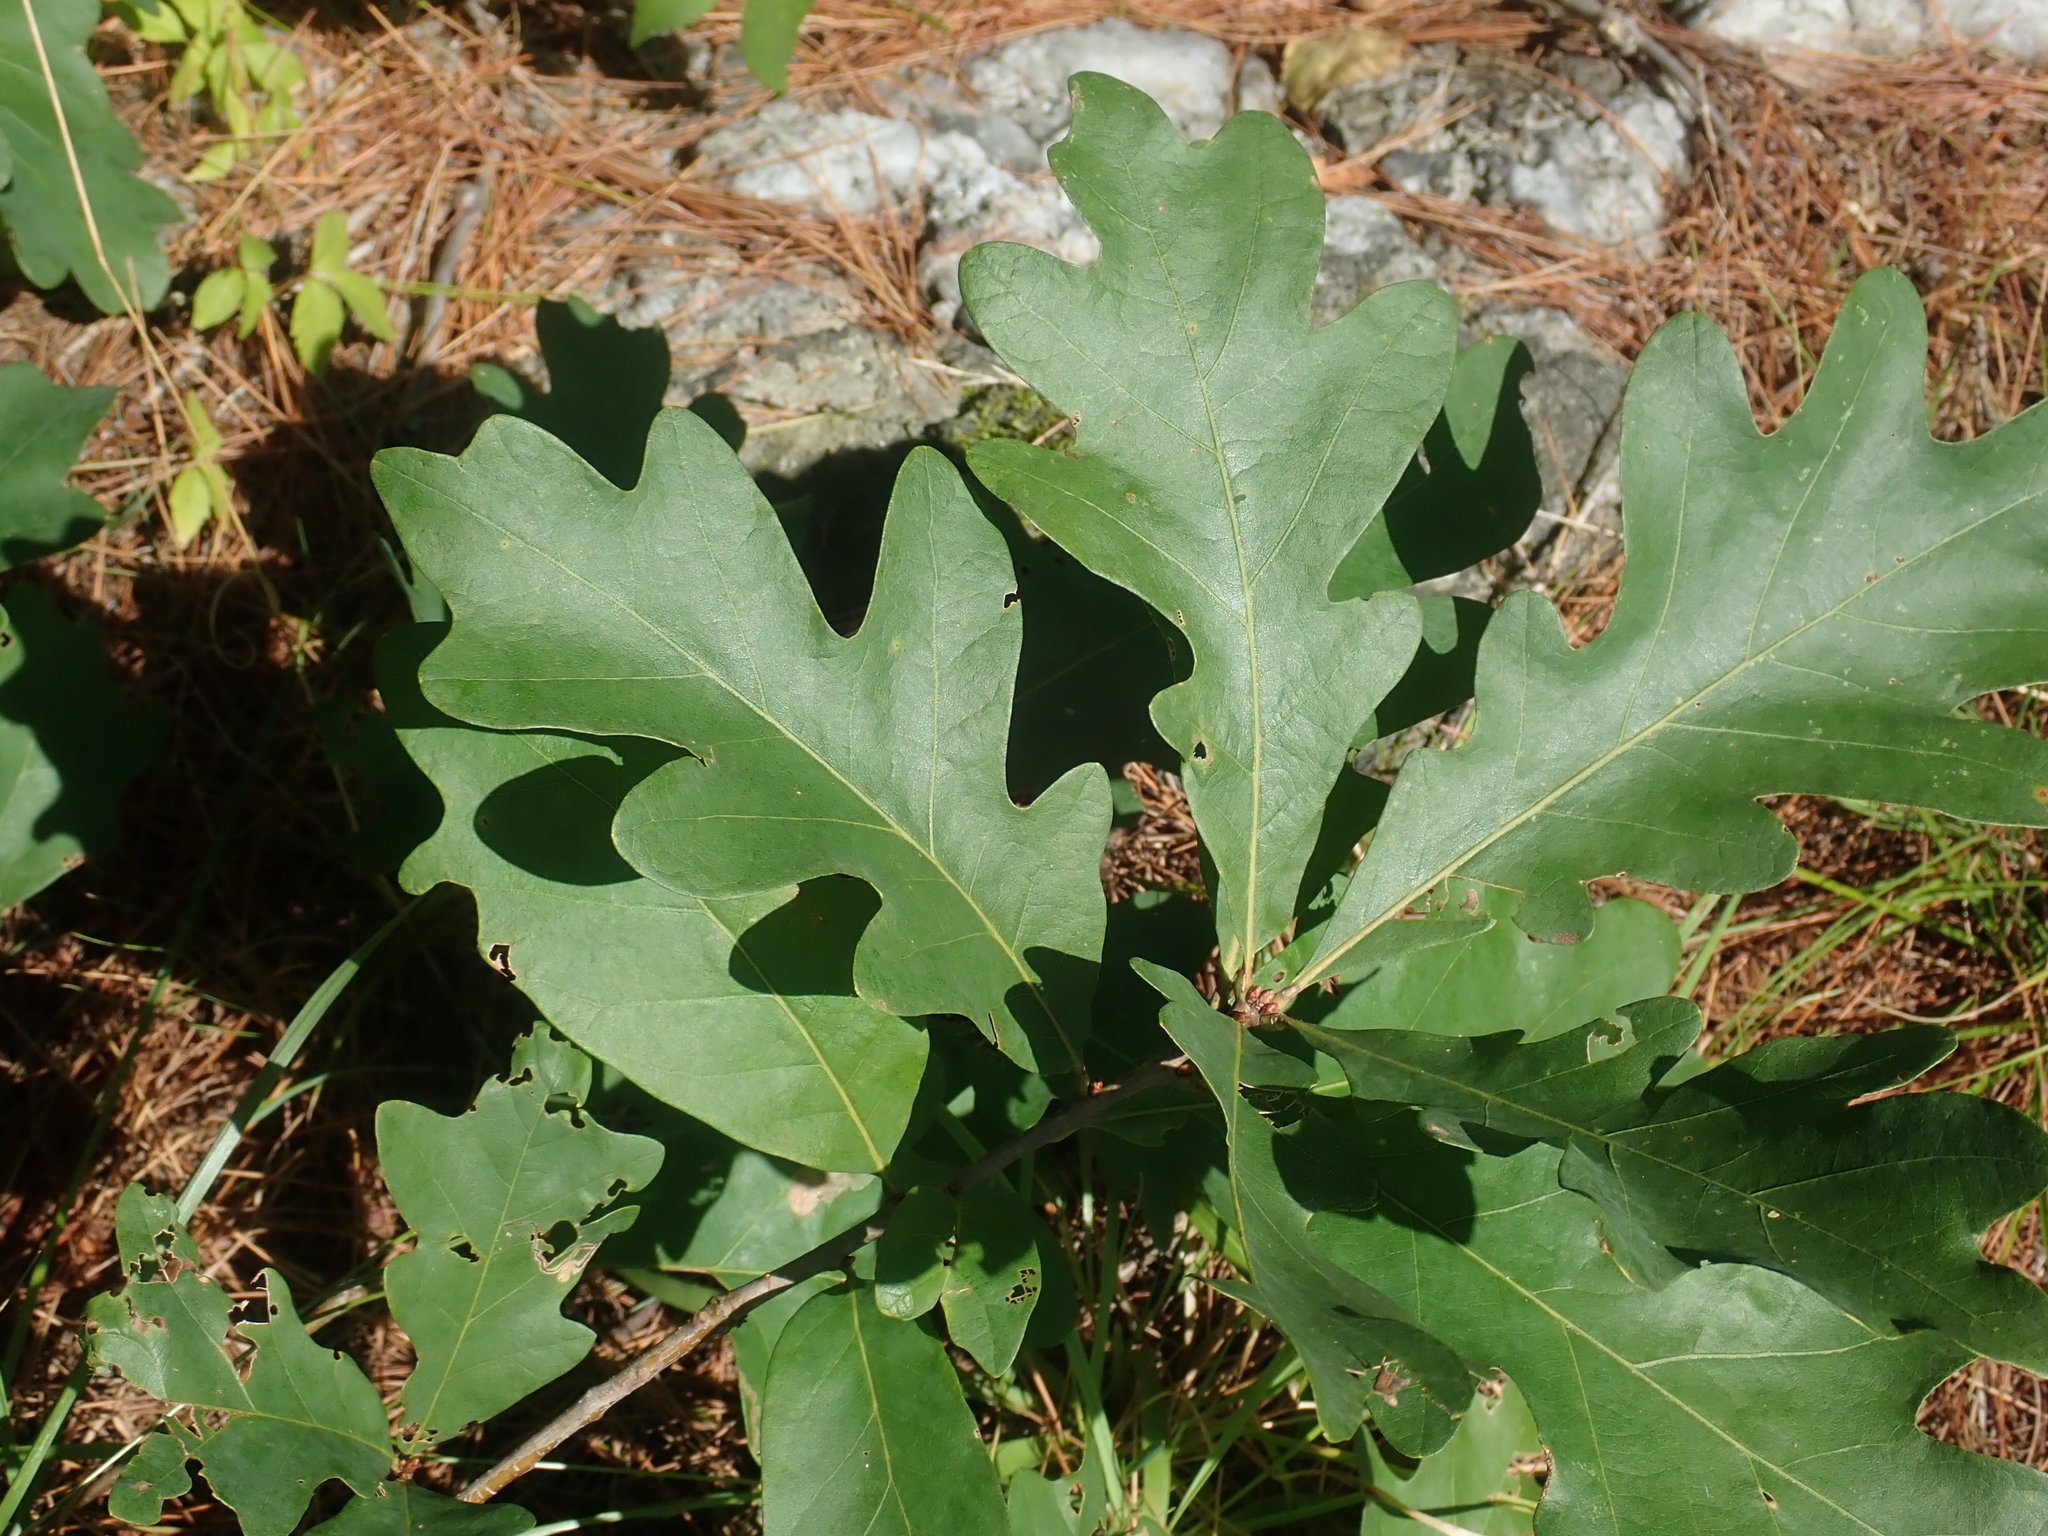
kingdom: Plantae
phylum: Tracheophyta
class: Magnoliopsida
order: Fagales
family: Fagaceae
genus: Quercus
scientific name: Quercus alba
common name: White oak
